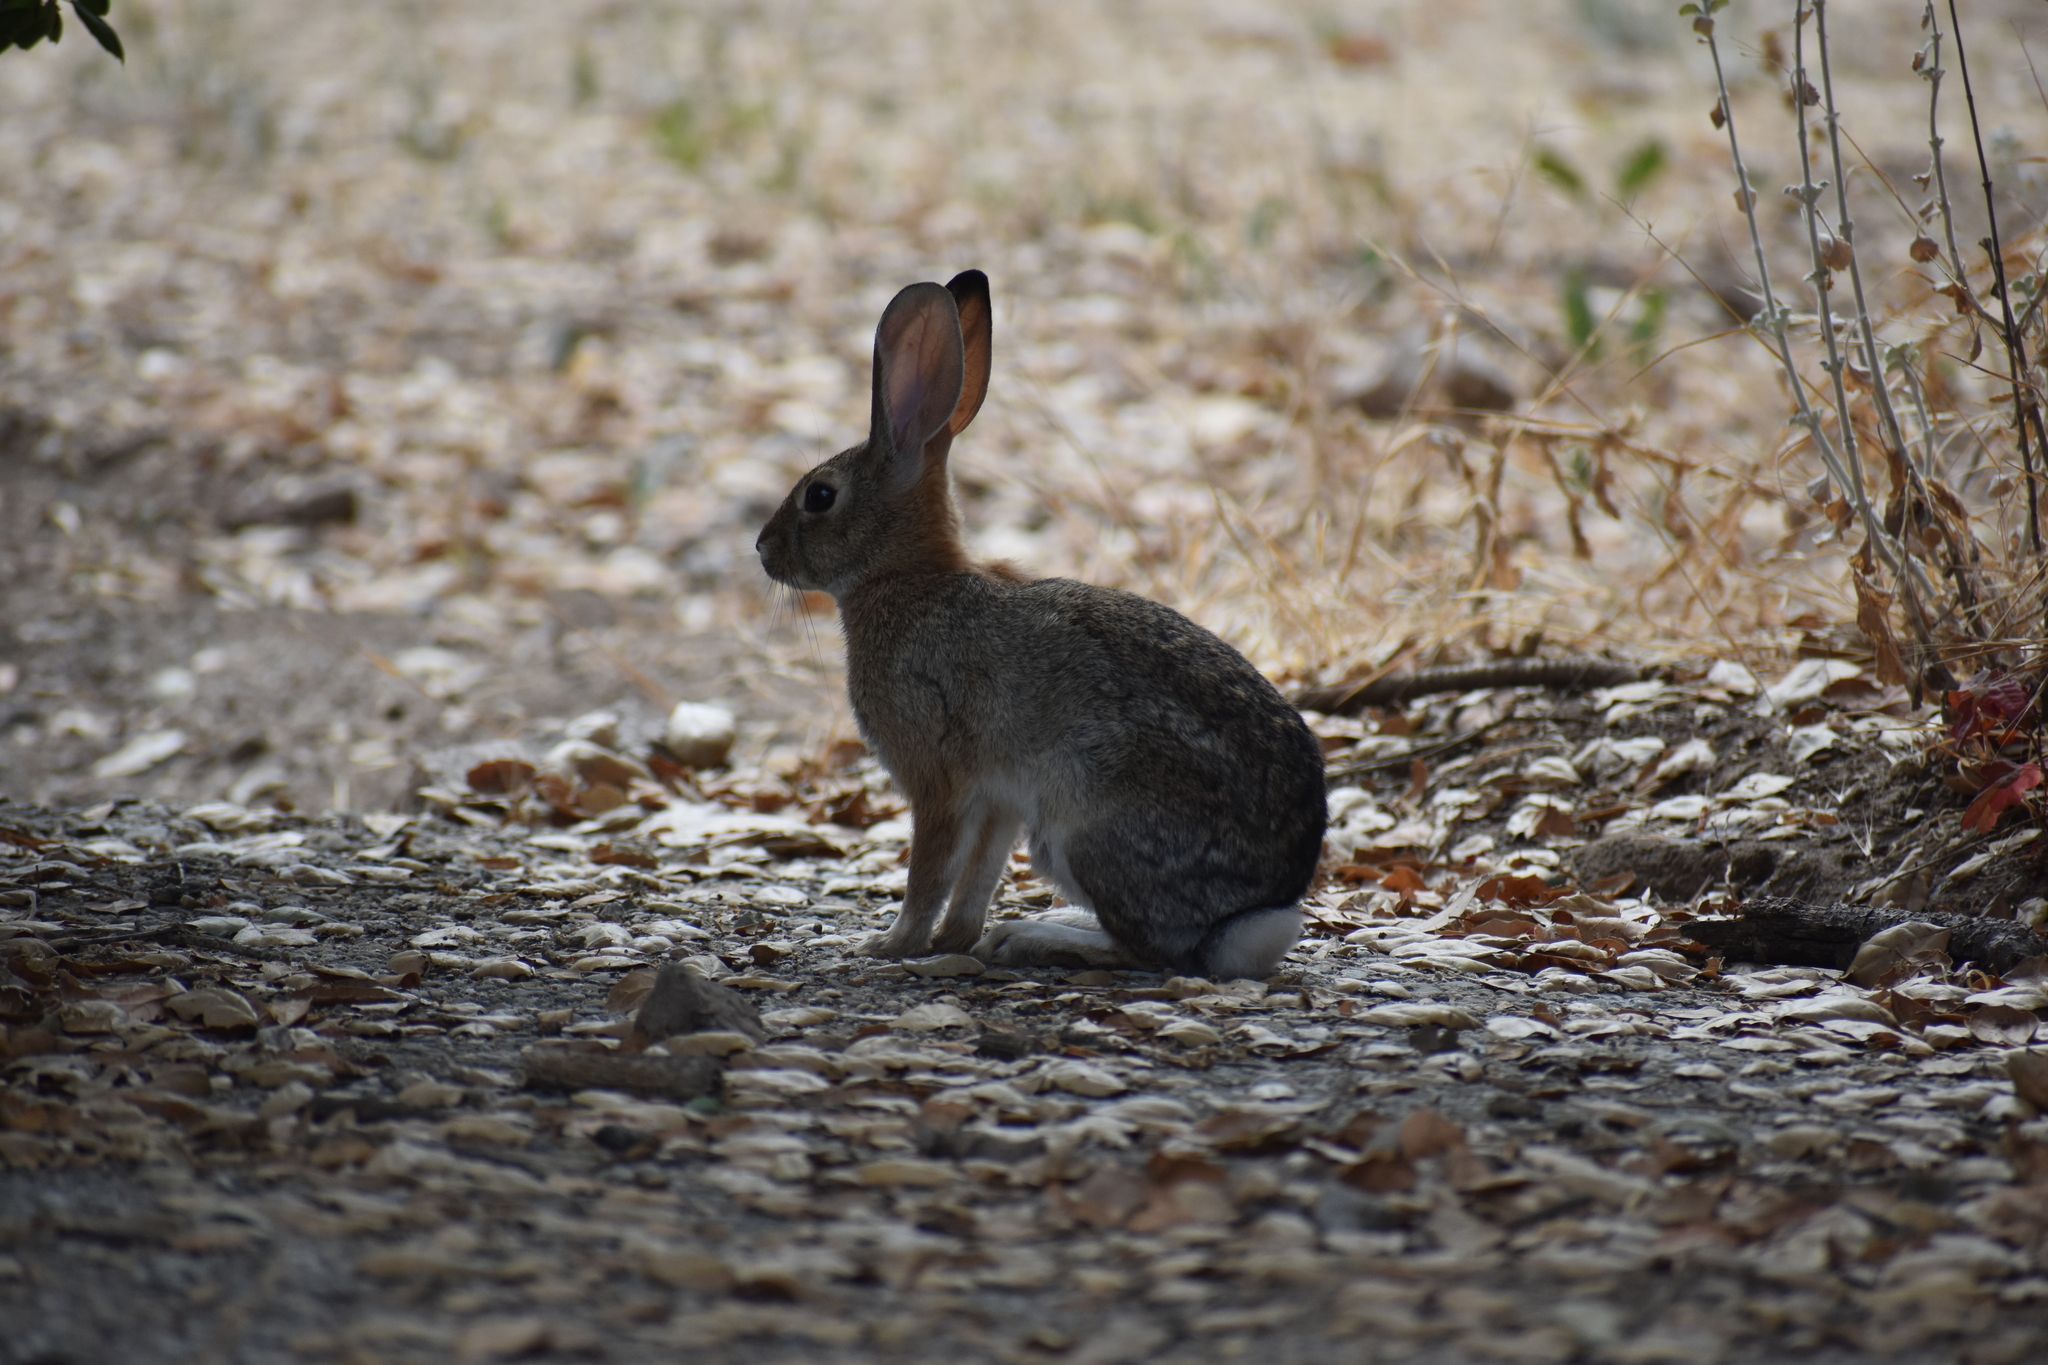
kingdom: Animalia
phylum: Chordata
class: Mammalia
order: Lagomorpha
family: Leporidae
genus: Sylvilagus
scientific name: Sylvilagus audubonii
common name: Desert cottontail
